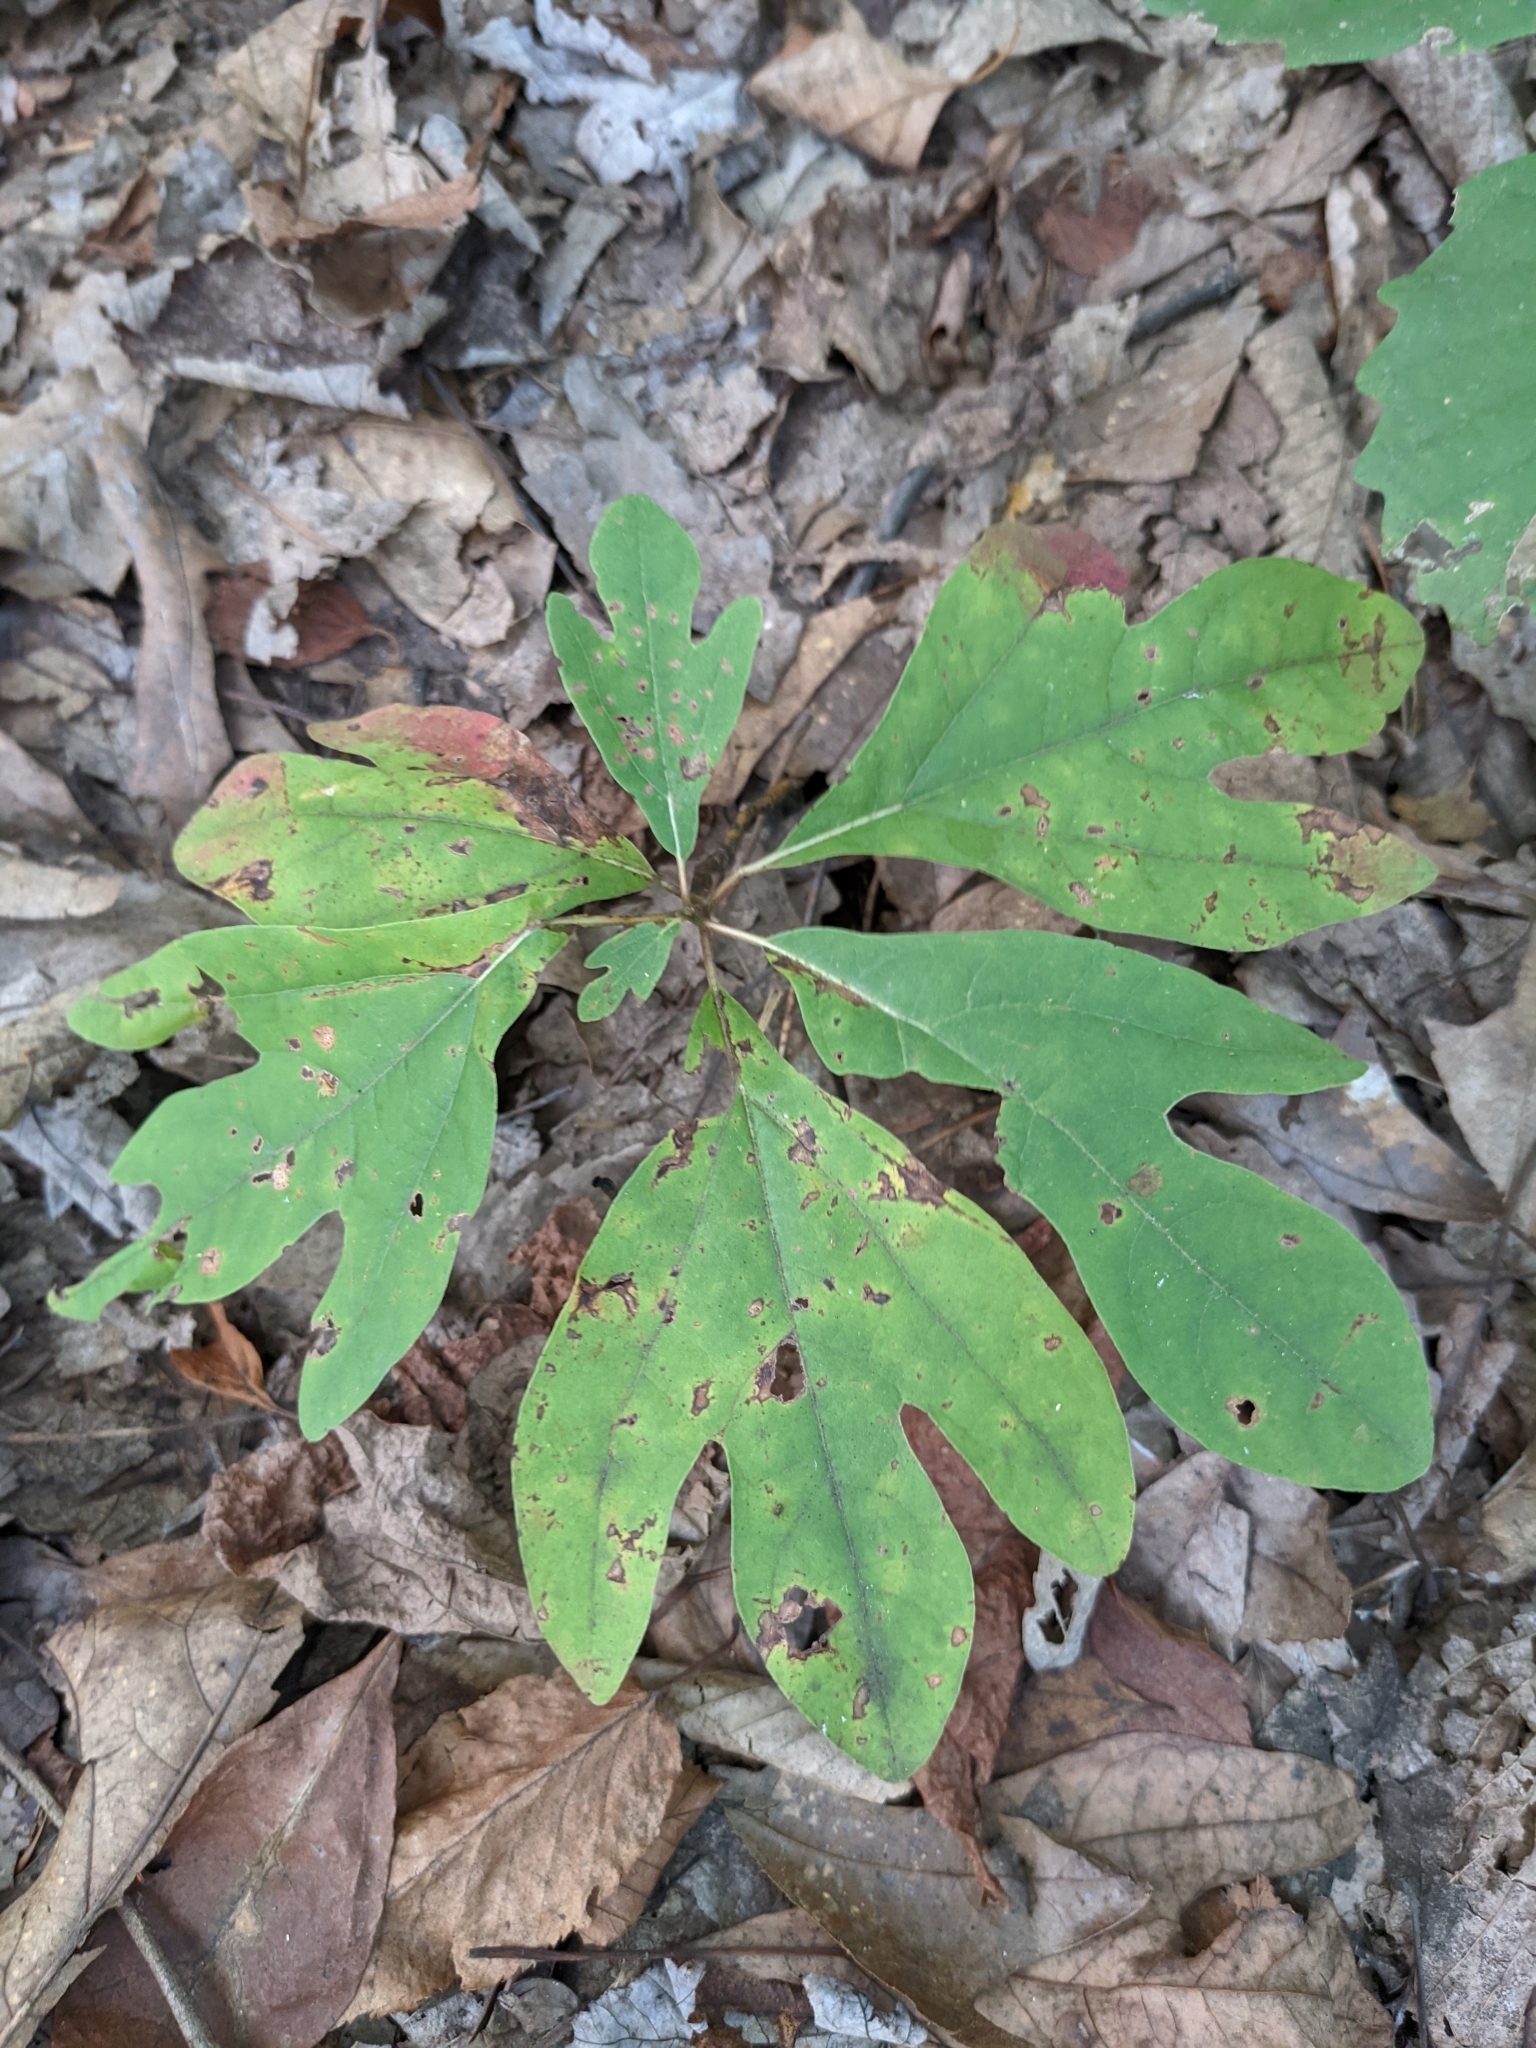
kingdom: Plantae
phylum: Tracheophyta
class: Magnoliopsida
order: Laurales
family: Lauraceae
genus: Sassafras
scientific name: Sassafras albidum
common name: Sassafras
